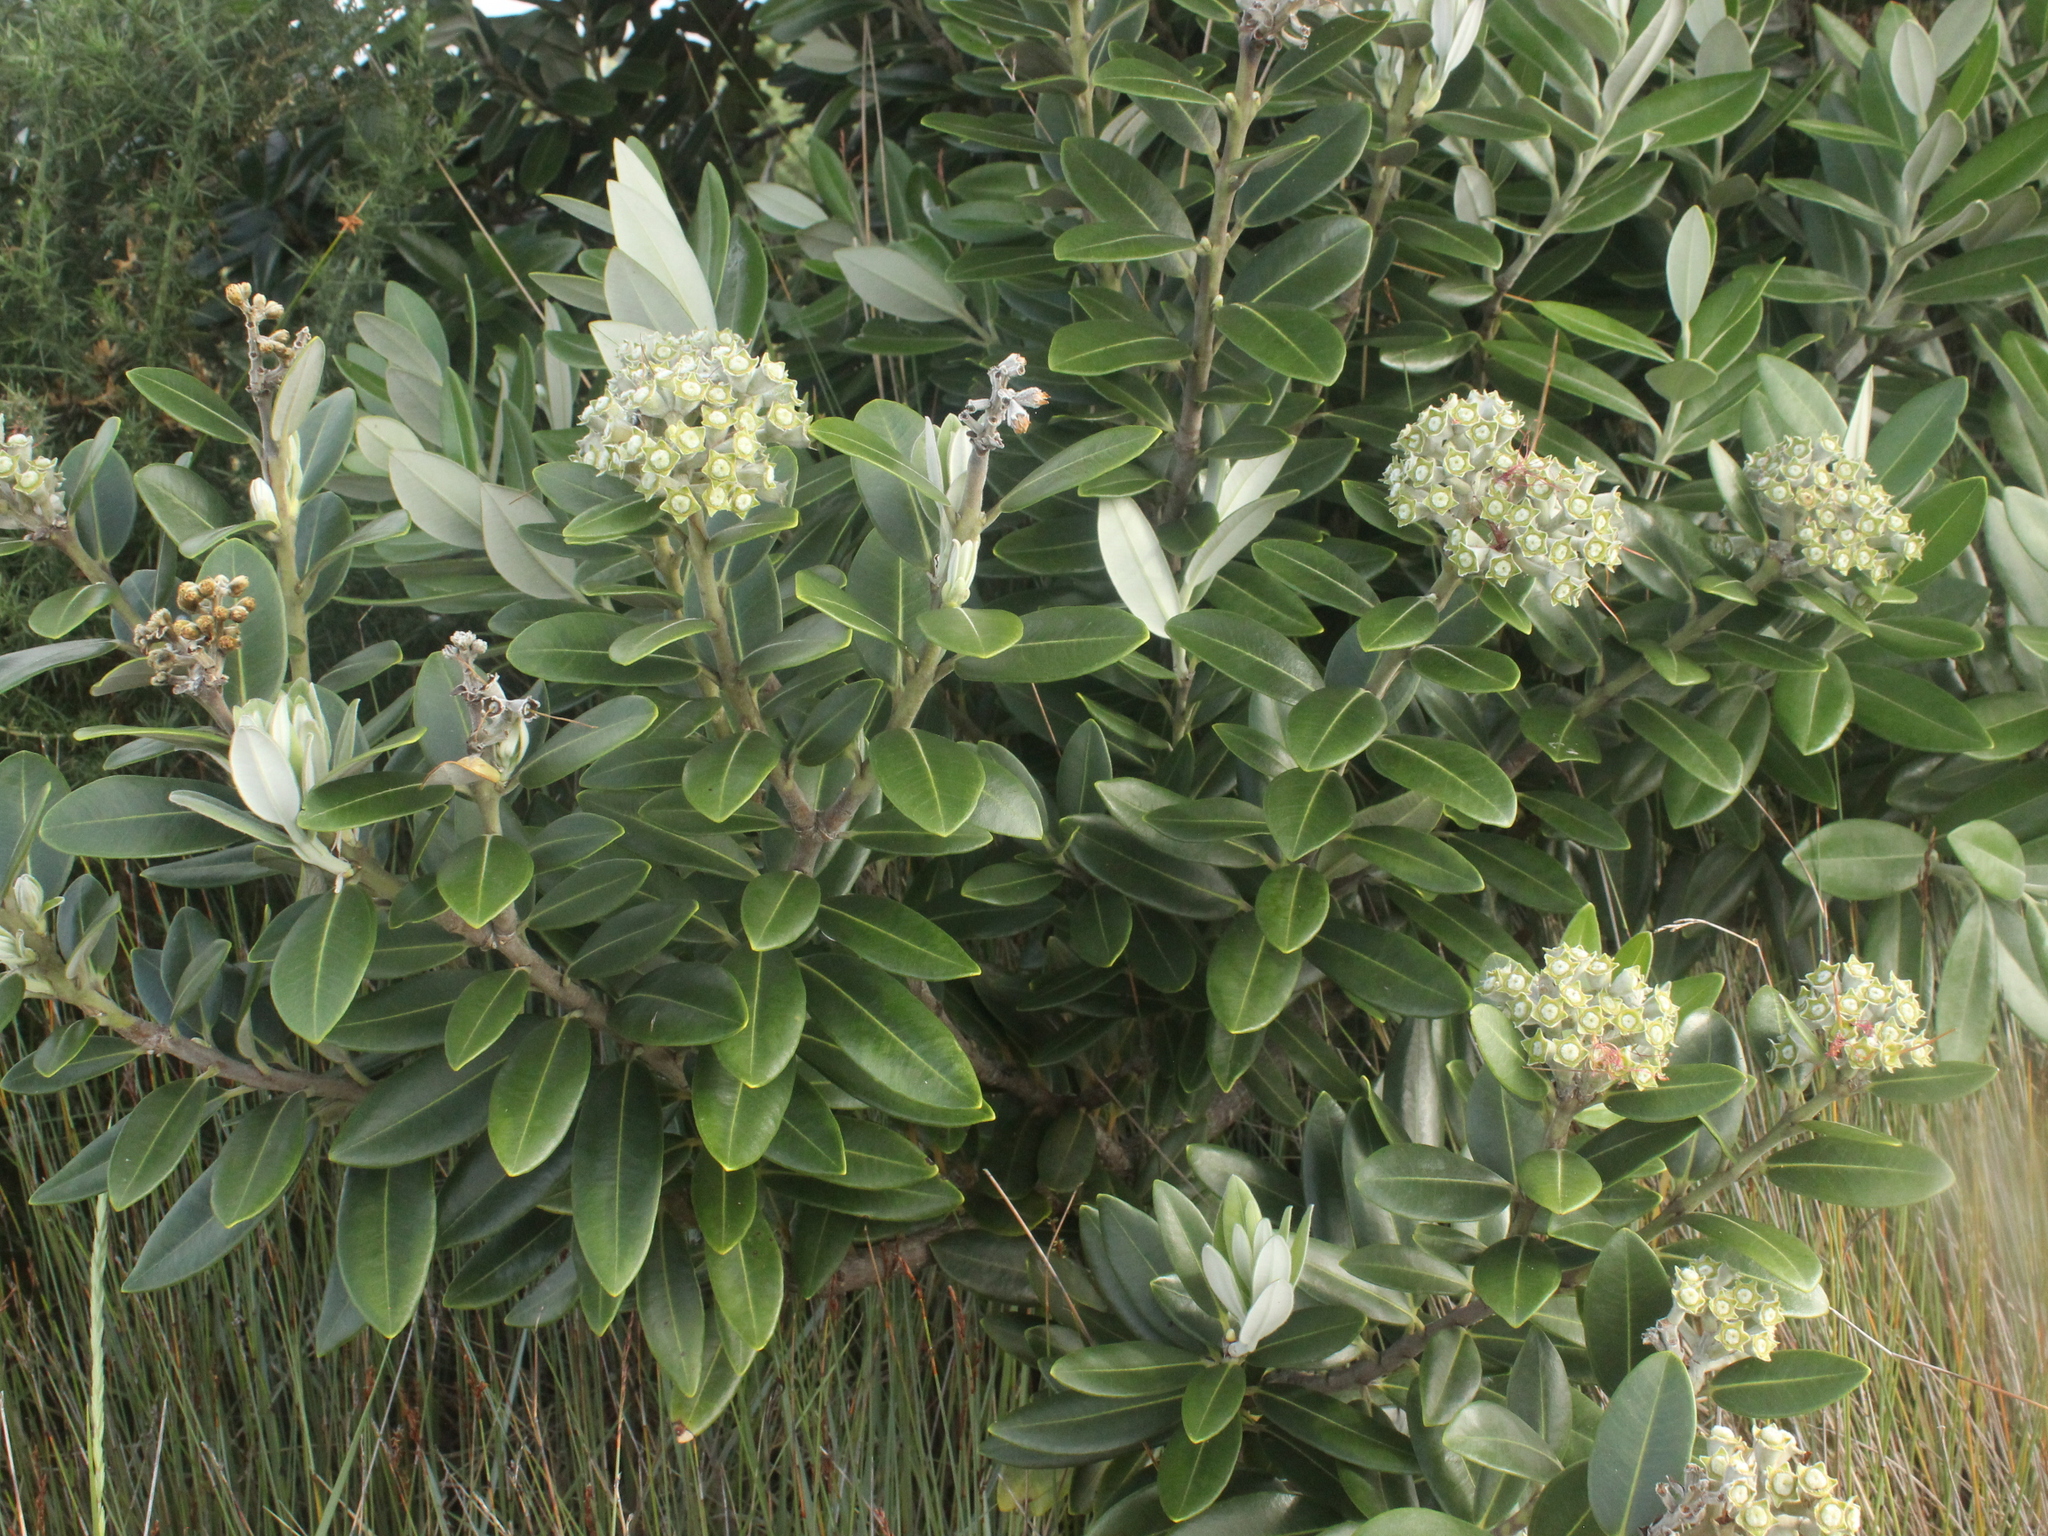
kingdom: Plantae
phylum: Tracheophyta
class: Magnoliopsida
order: Myrtales
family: Myrtaceae
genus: Metrosideros
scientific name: Metrosideros excelsa
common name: New zealand christmastree
